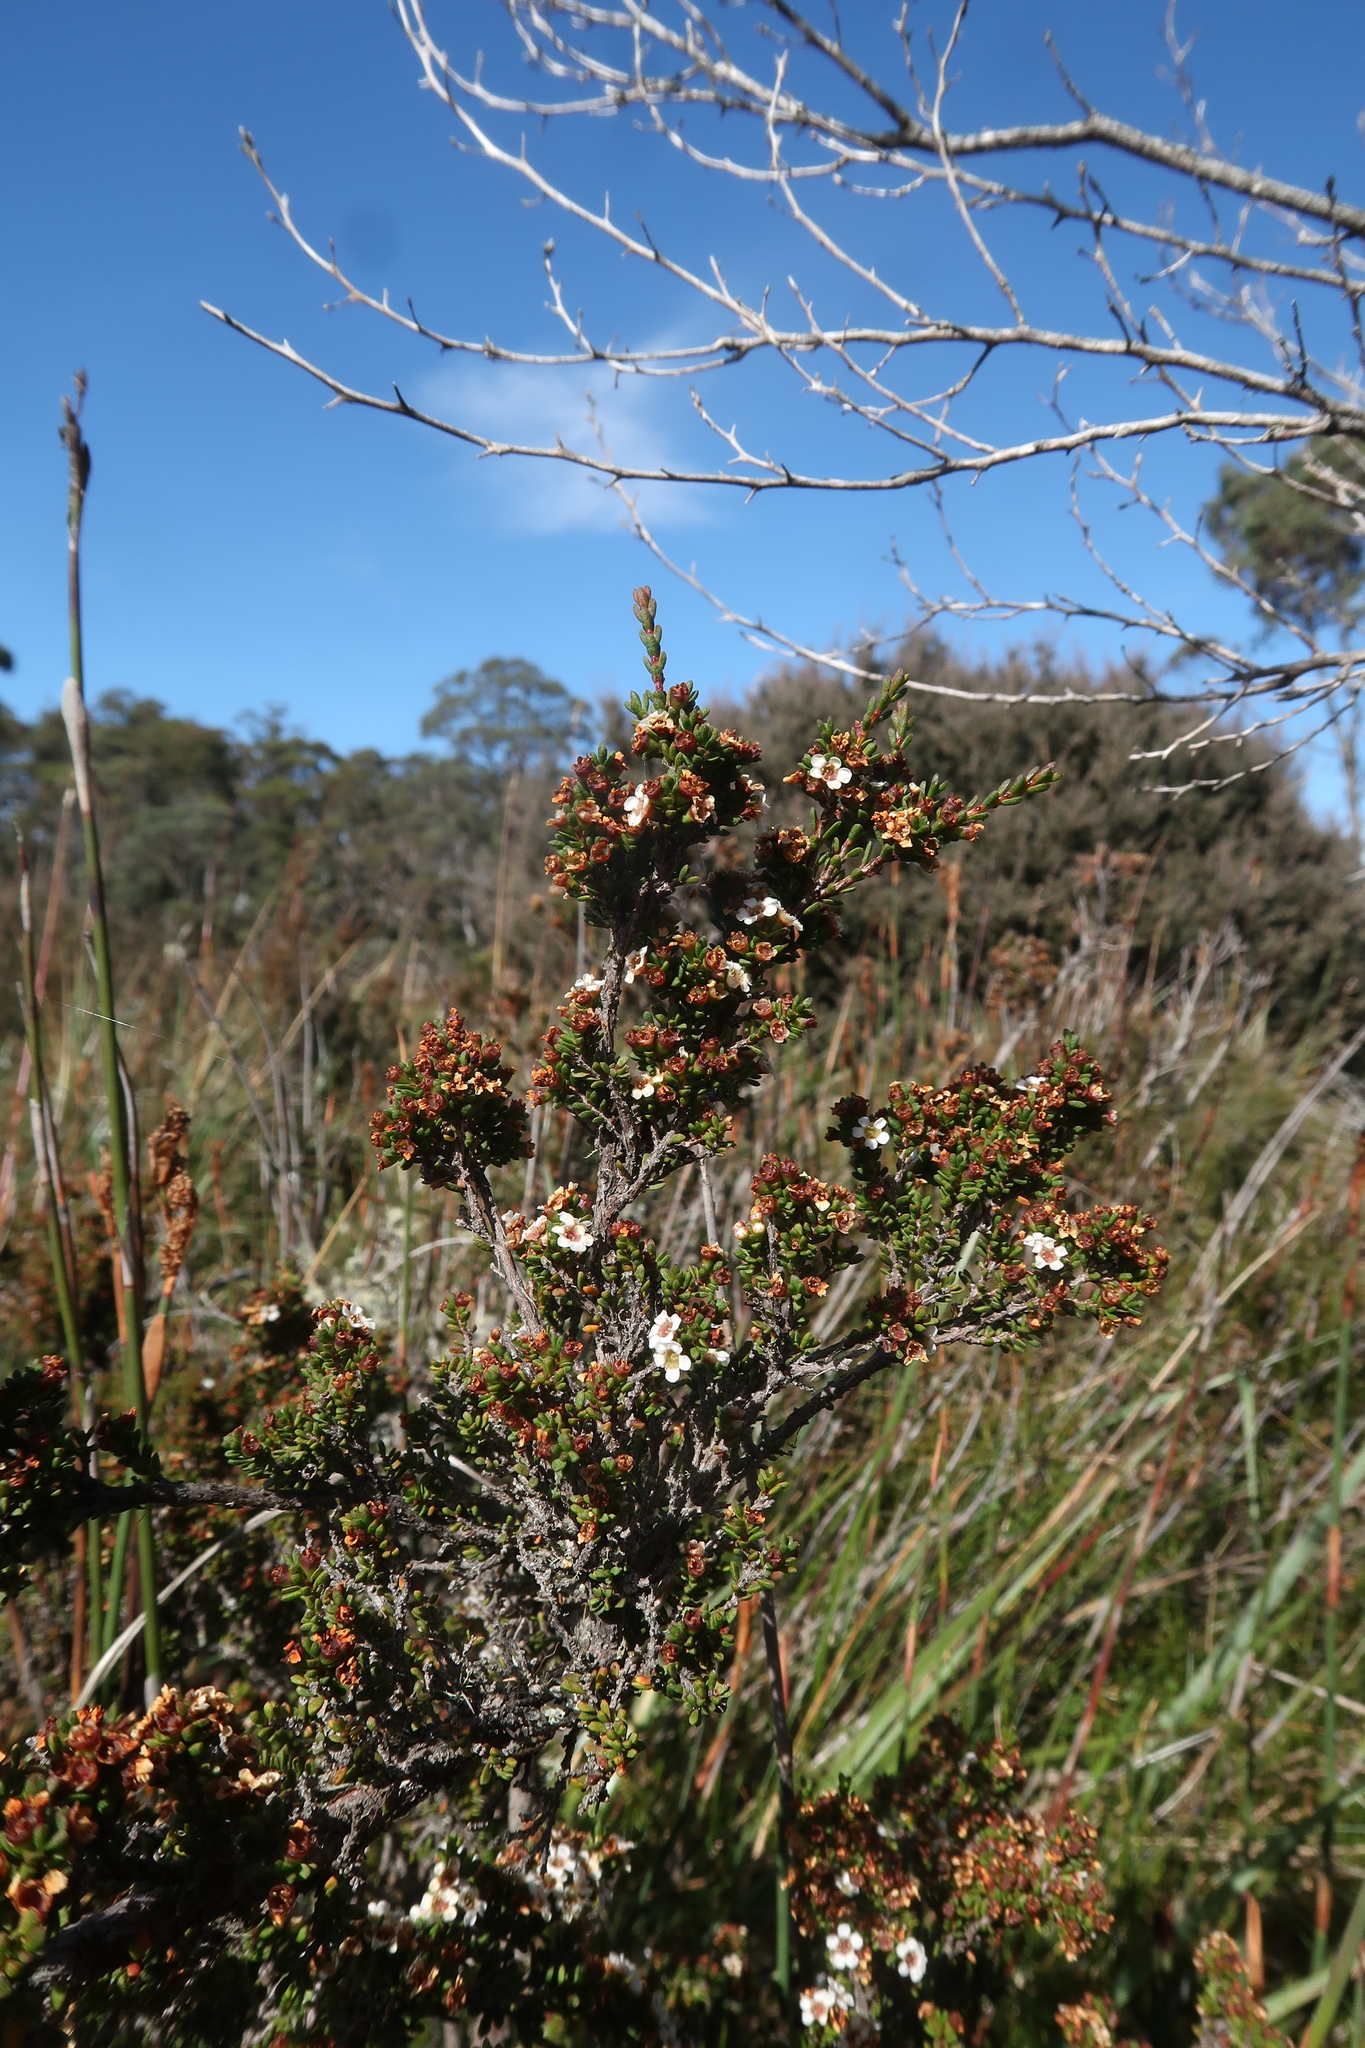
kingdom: Plantae
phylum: Tracheophyta
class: Magnoliopsida
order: Myrtales
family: Myrtaceae
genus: Baeckea
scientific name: Baeckea gunniana
